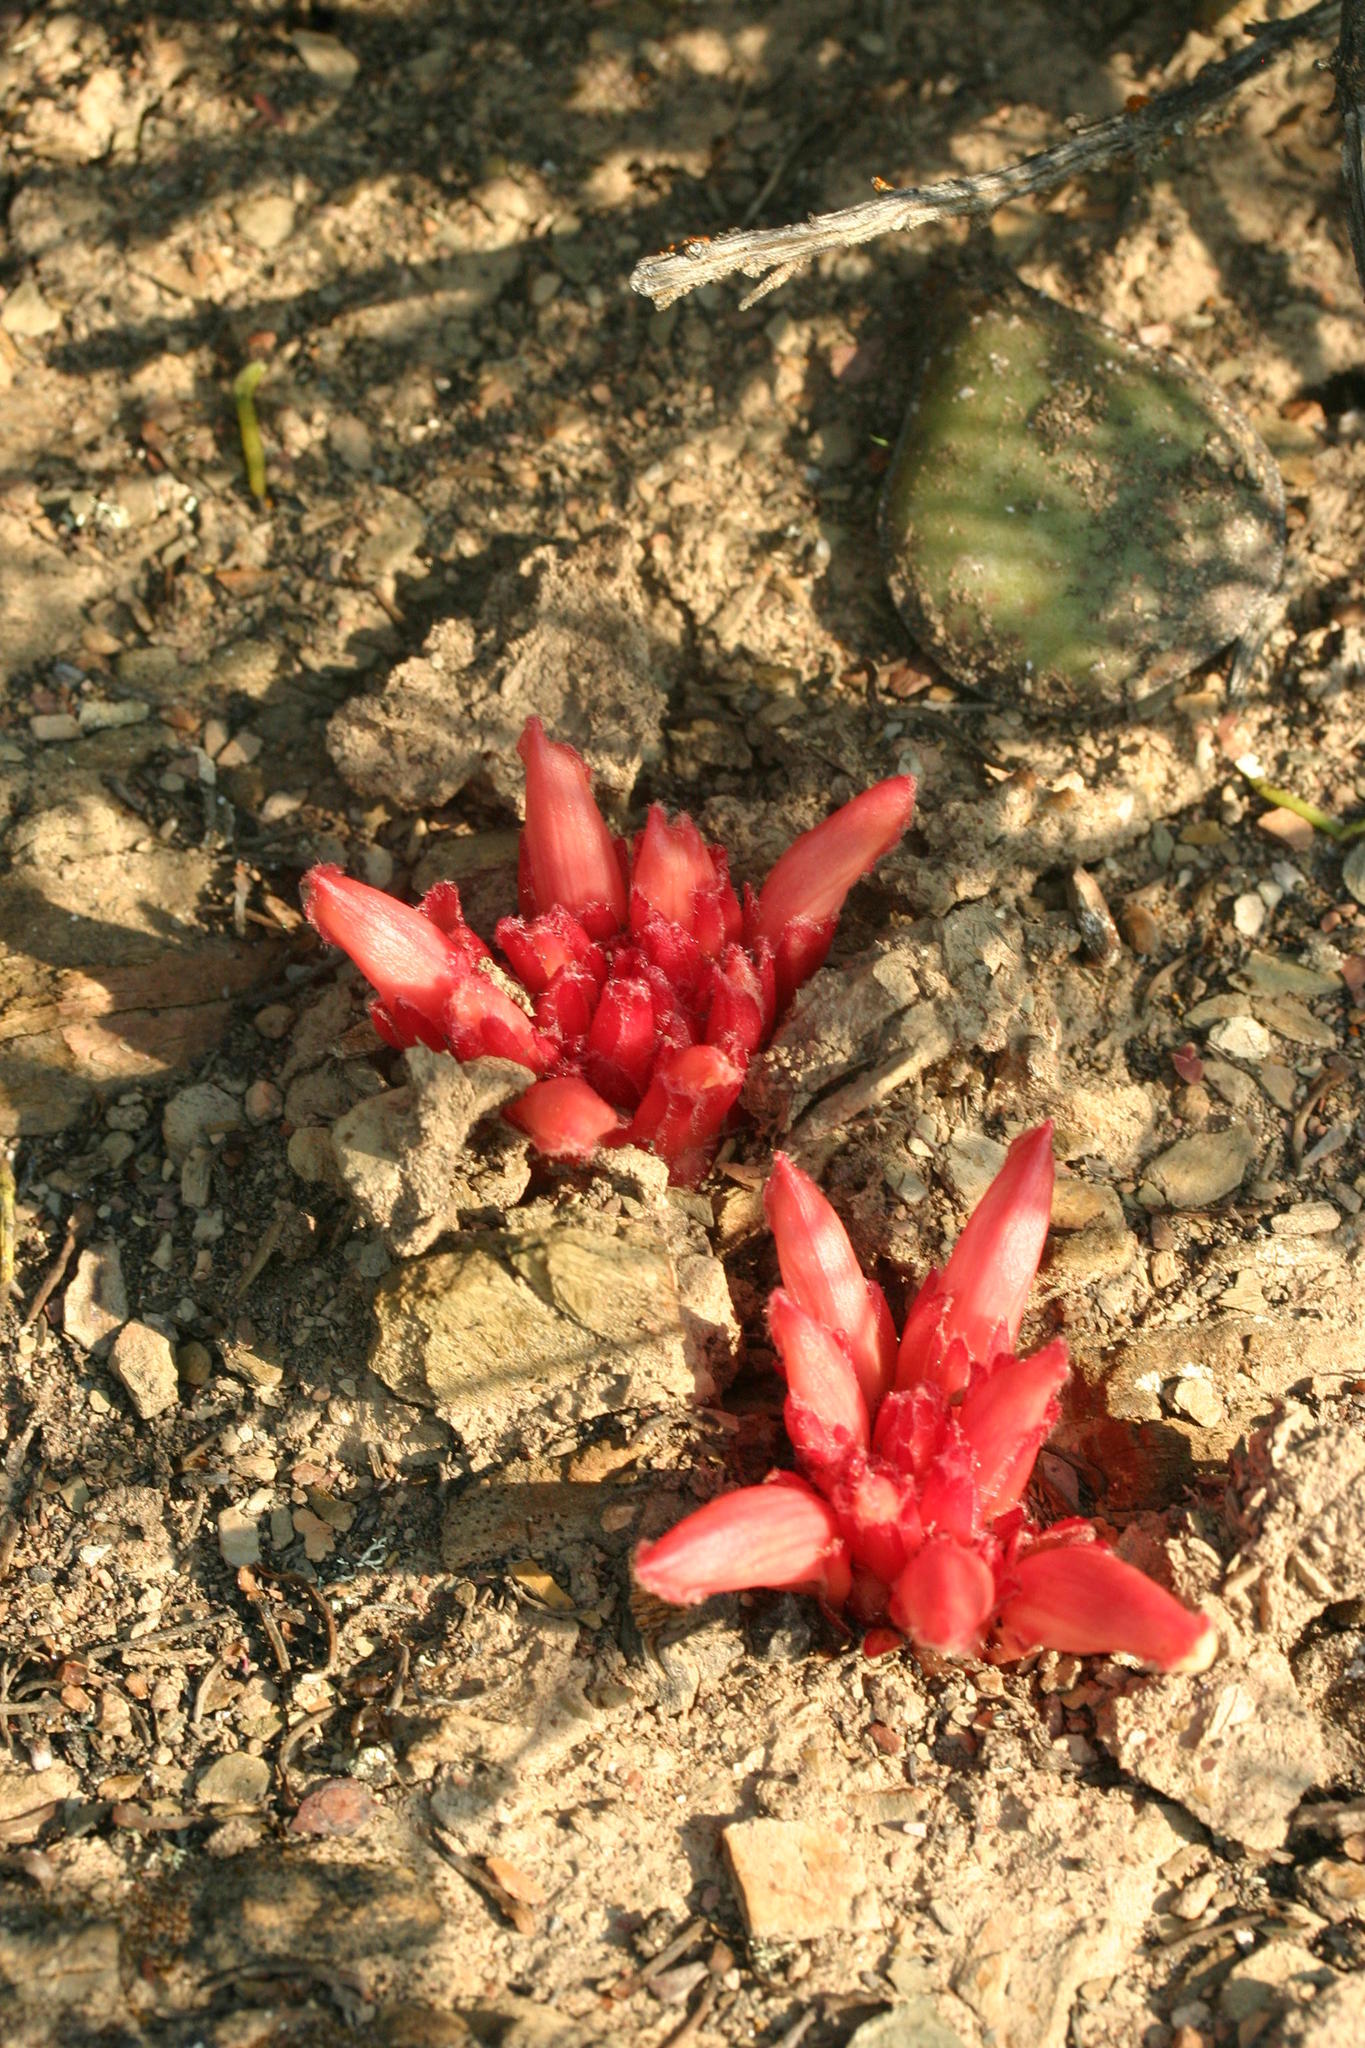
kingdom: Plantae
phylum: Tracheophyta
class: Magnoliopsida
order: Lamiales
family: Orobanchaceae
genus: Hyobanche
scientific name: Hyobanche glabrata
